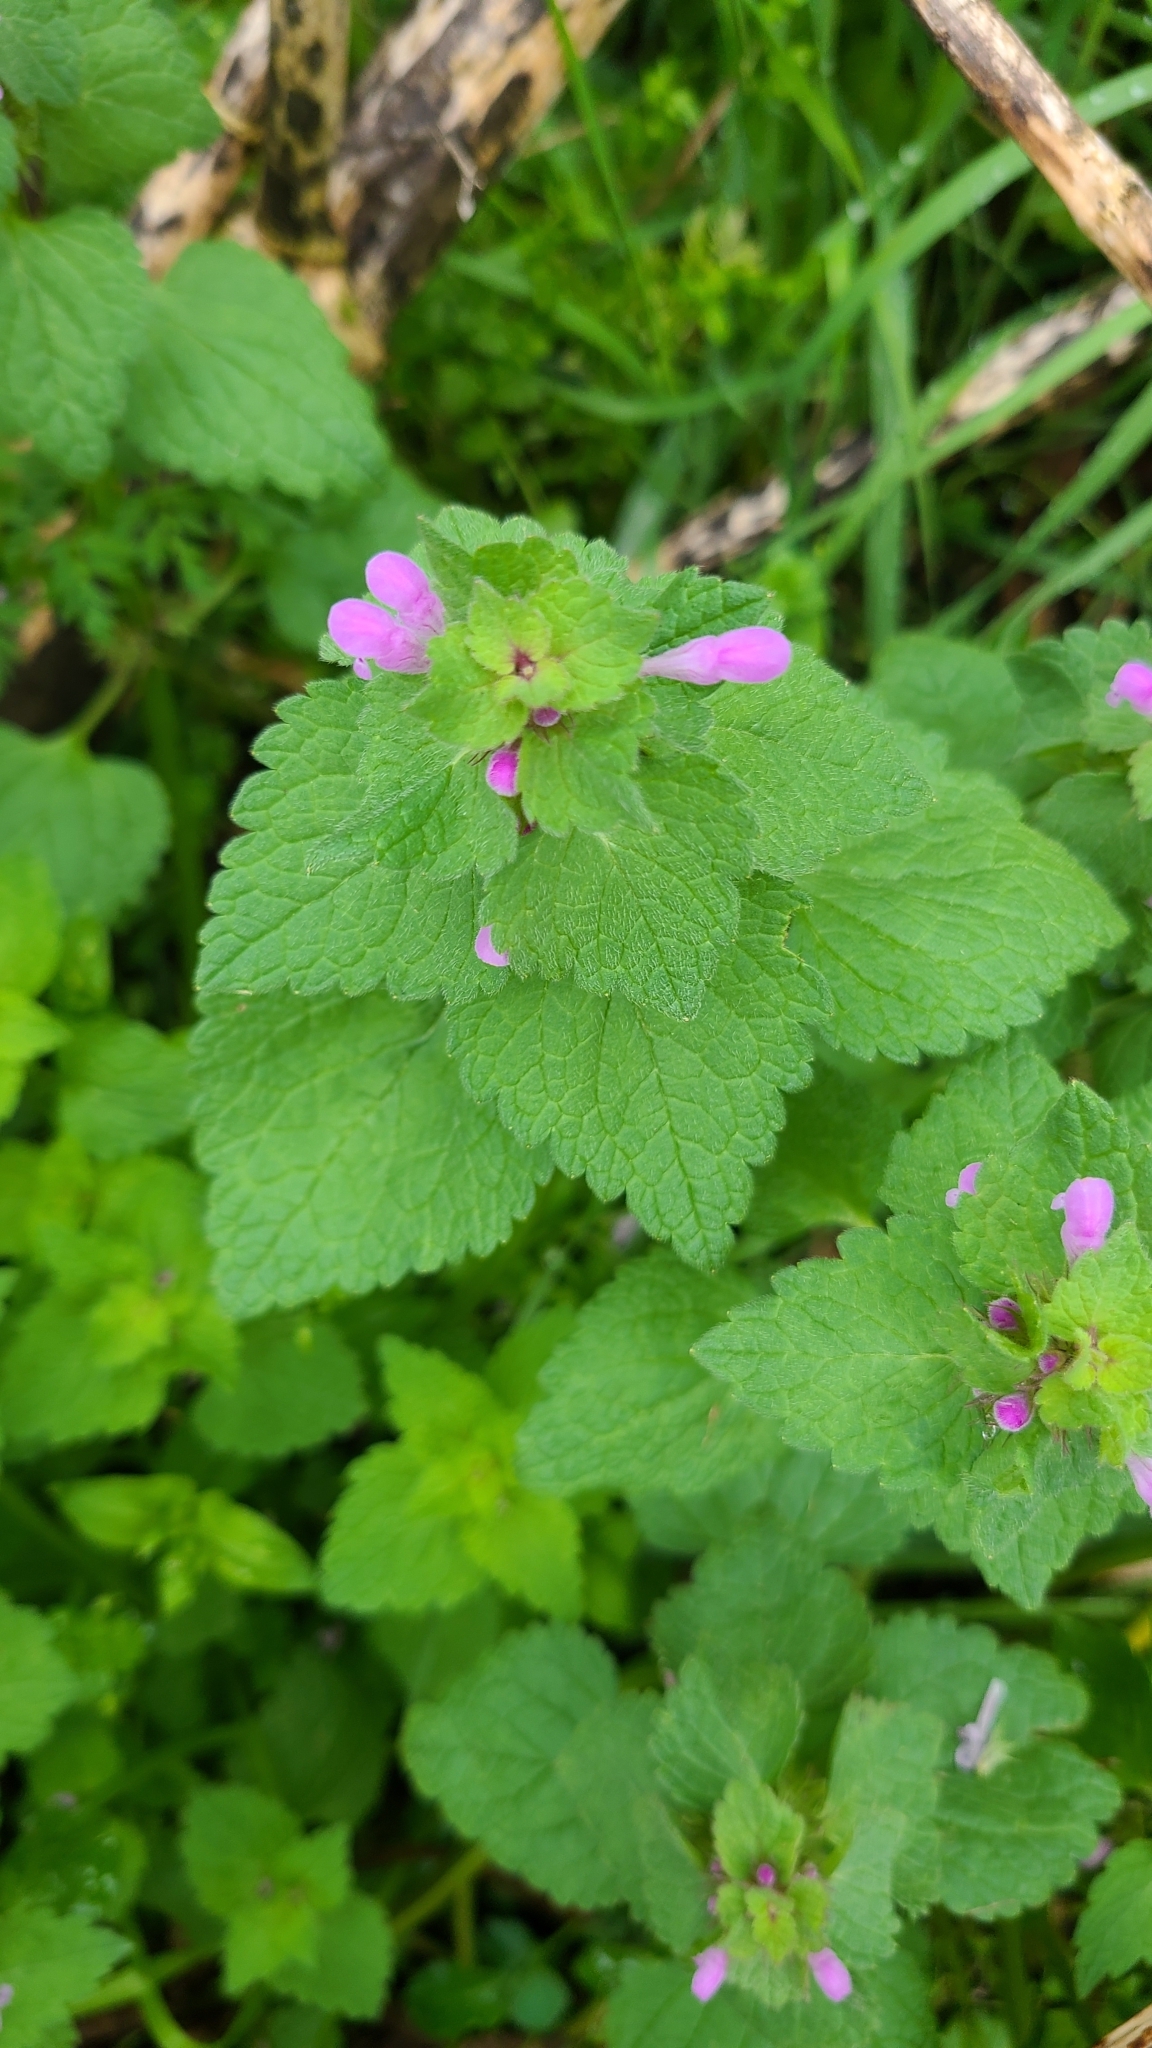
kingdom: Plantae
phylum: Tracheophyta
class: Magnoliopsida
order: Lamiales
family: Lamiaceae
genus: Lamium
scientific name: Lamium purpureum
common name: Red dead-nettle
